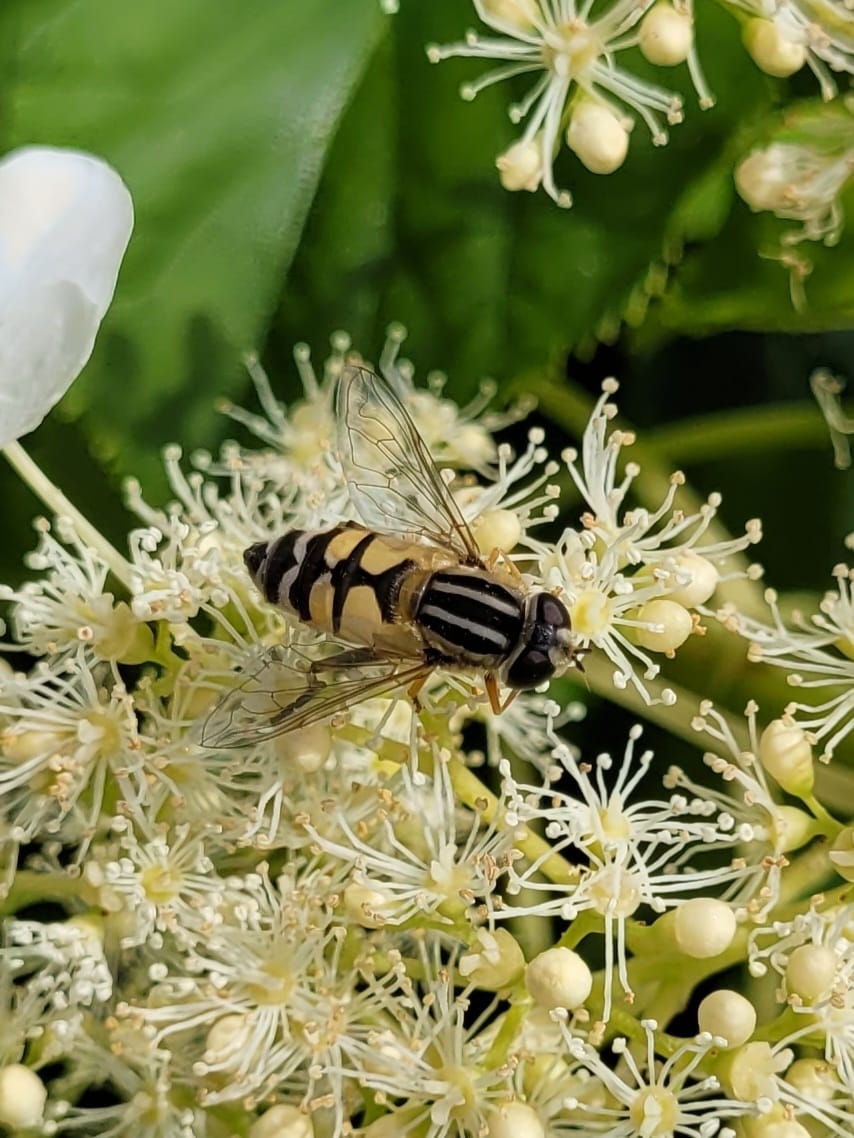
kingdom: Animalia
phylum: Arthropoda
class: Insecta
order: Diptera
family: Syrphidae
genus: Helophilus
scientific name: Helophilus trivittatus
